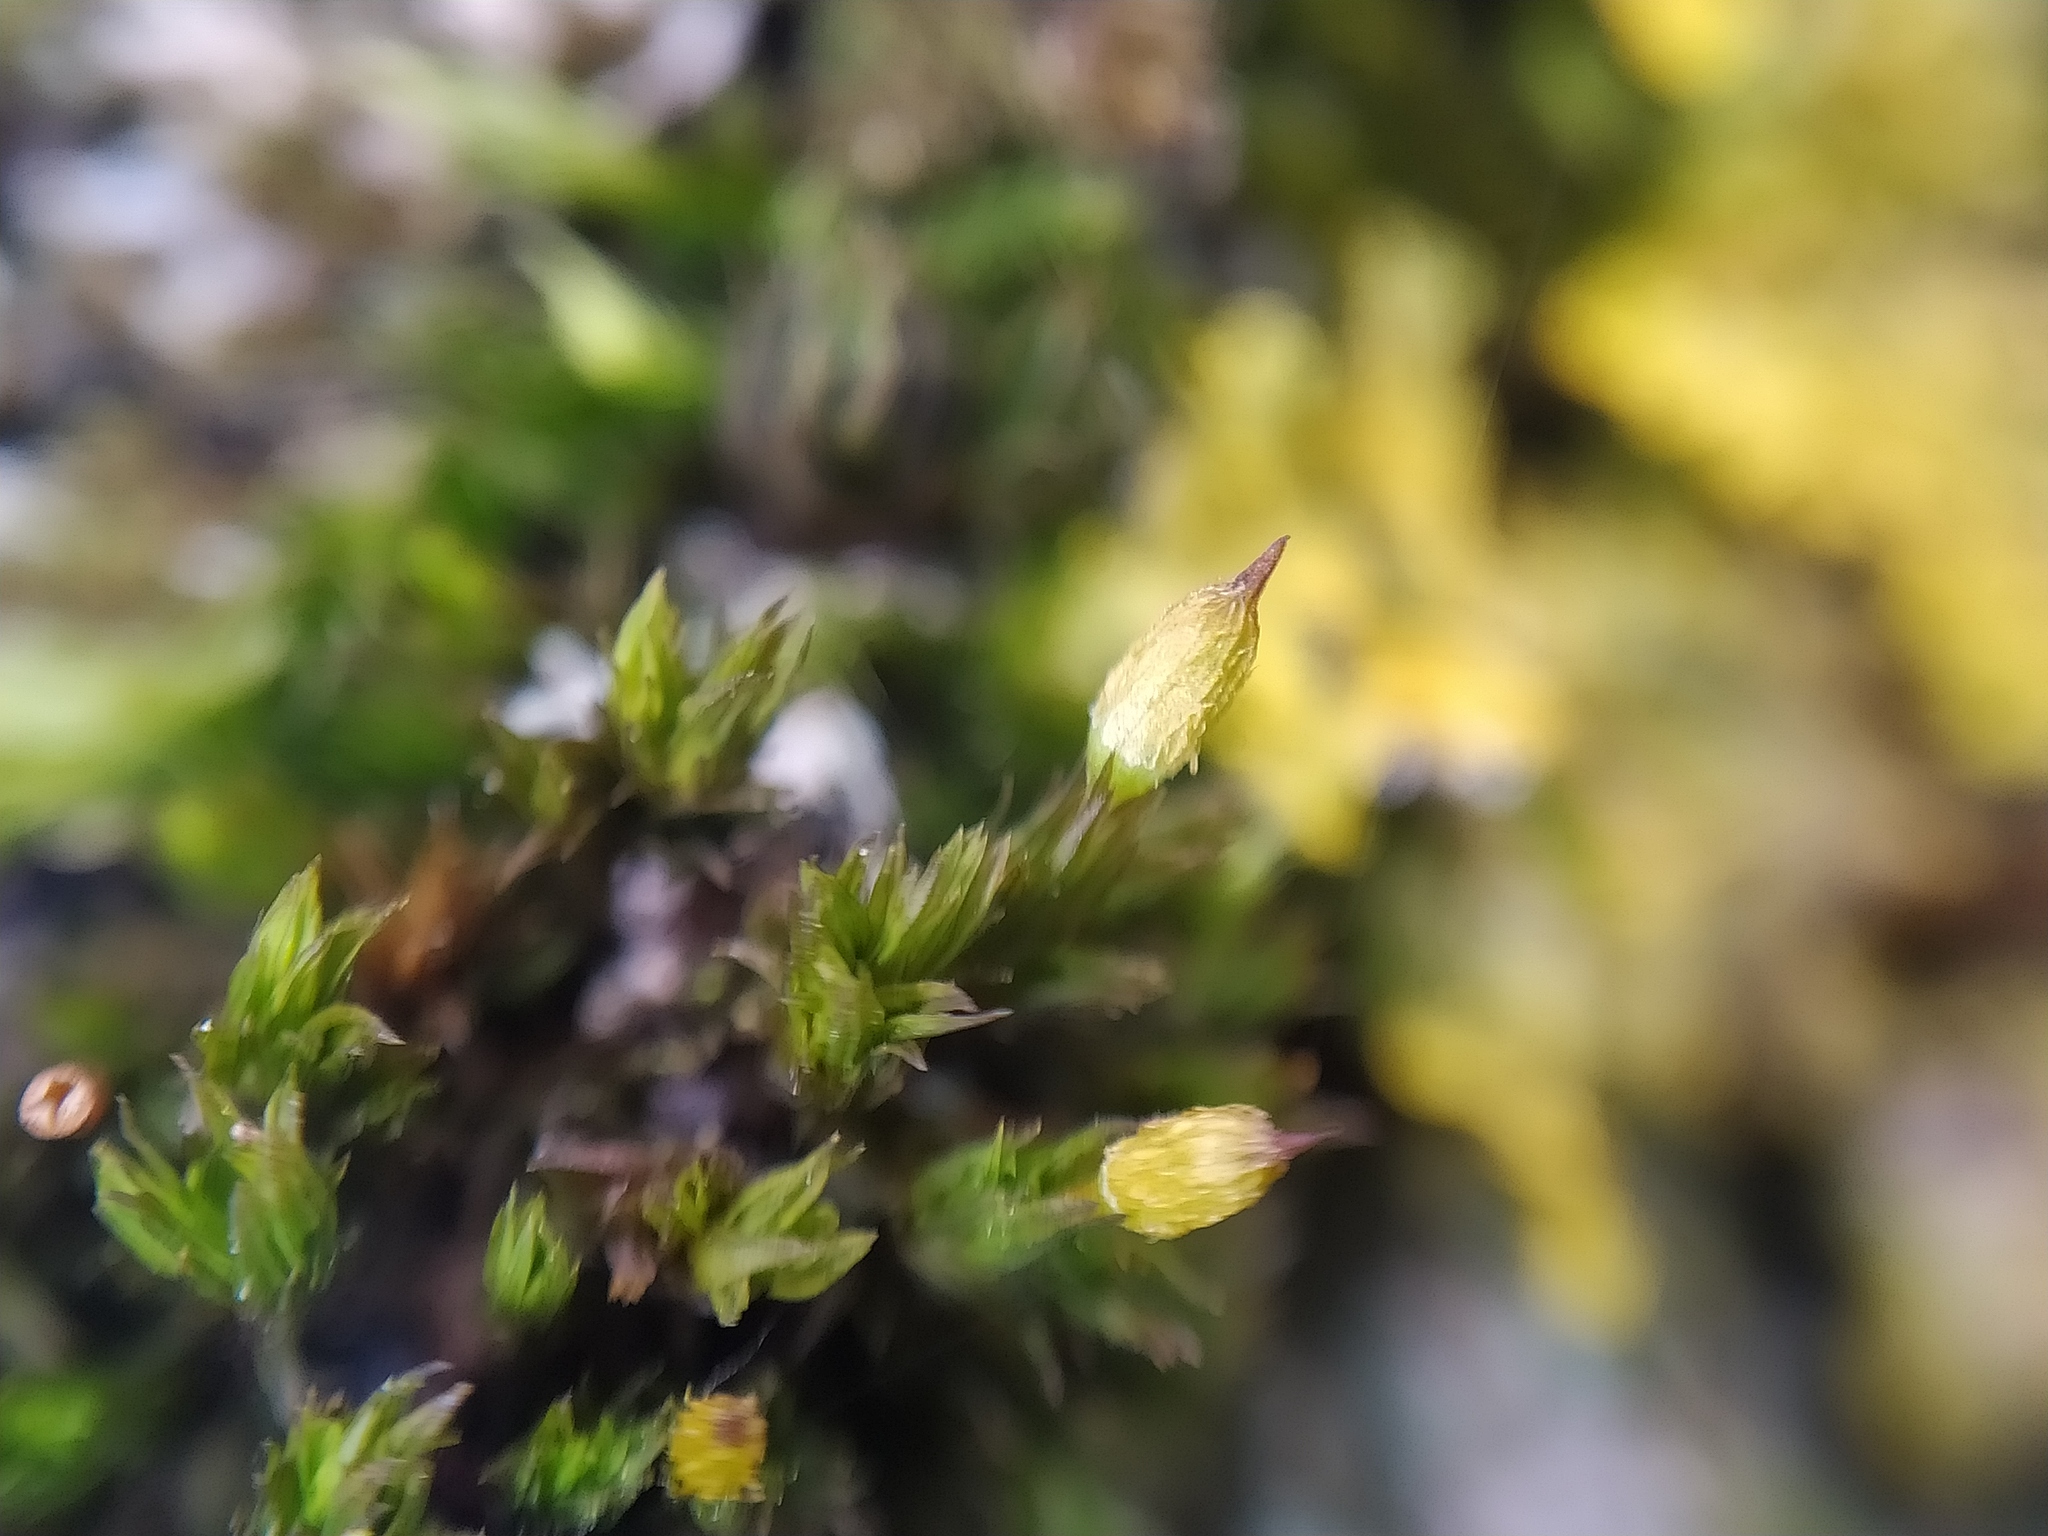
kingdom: Plantae
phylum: Bryophyta
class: Bryopsida
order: Orthotrichales
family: Orthotrichaceae
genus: Orthotrichum
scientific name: Orthotrichum anomalum
